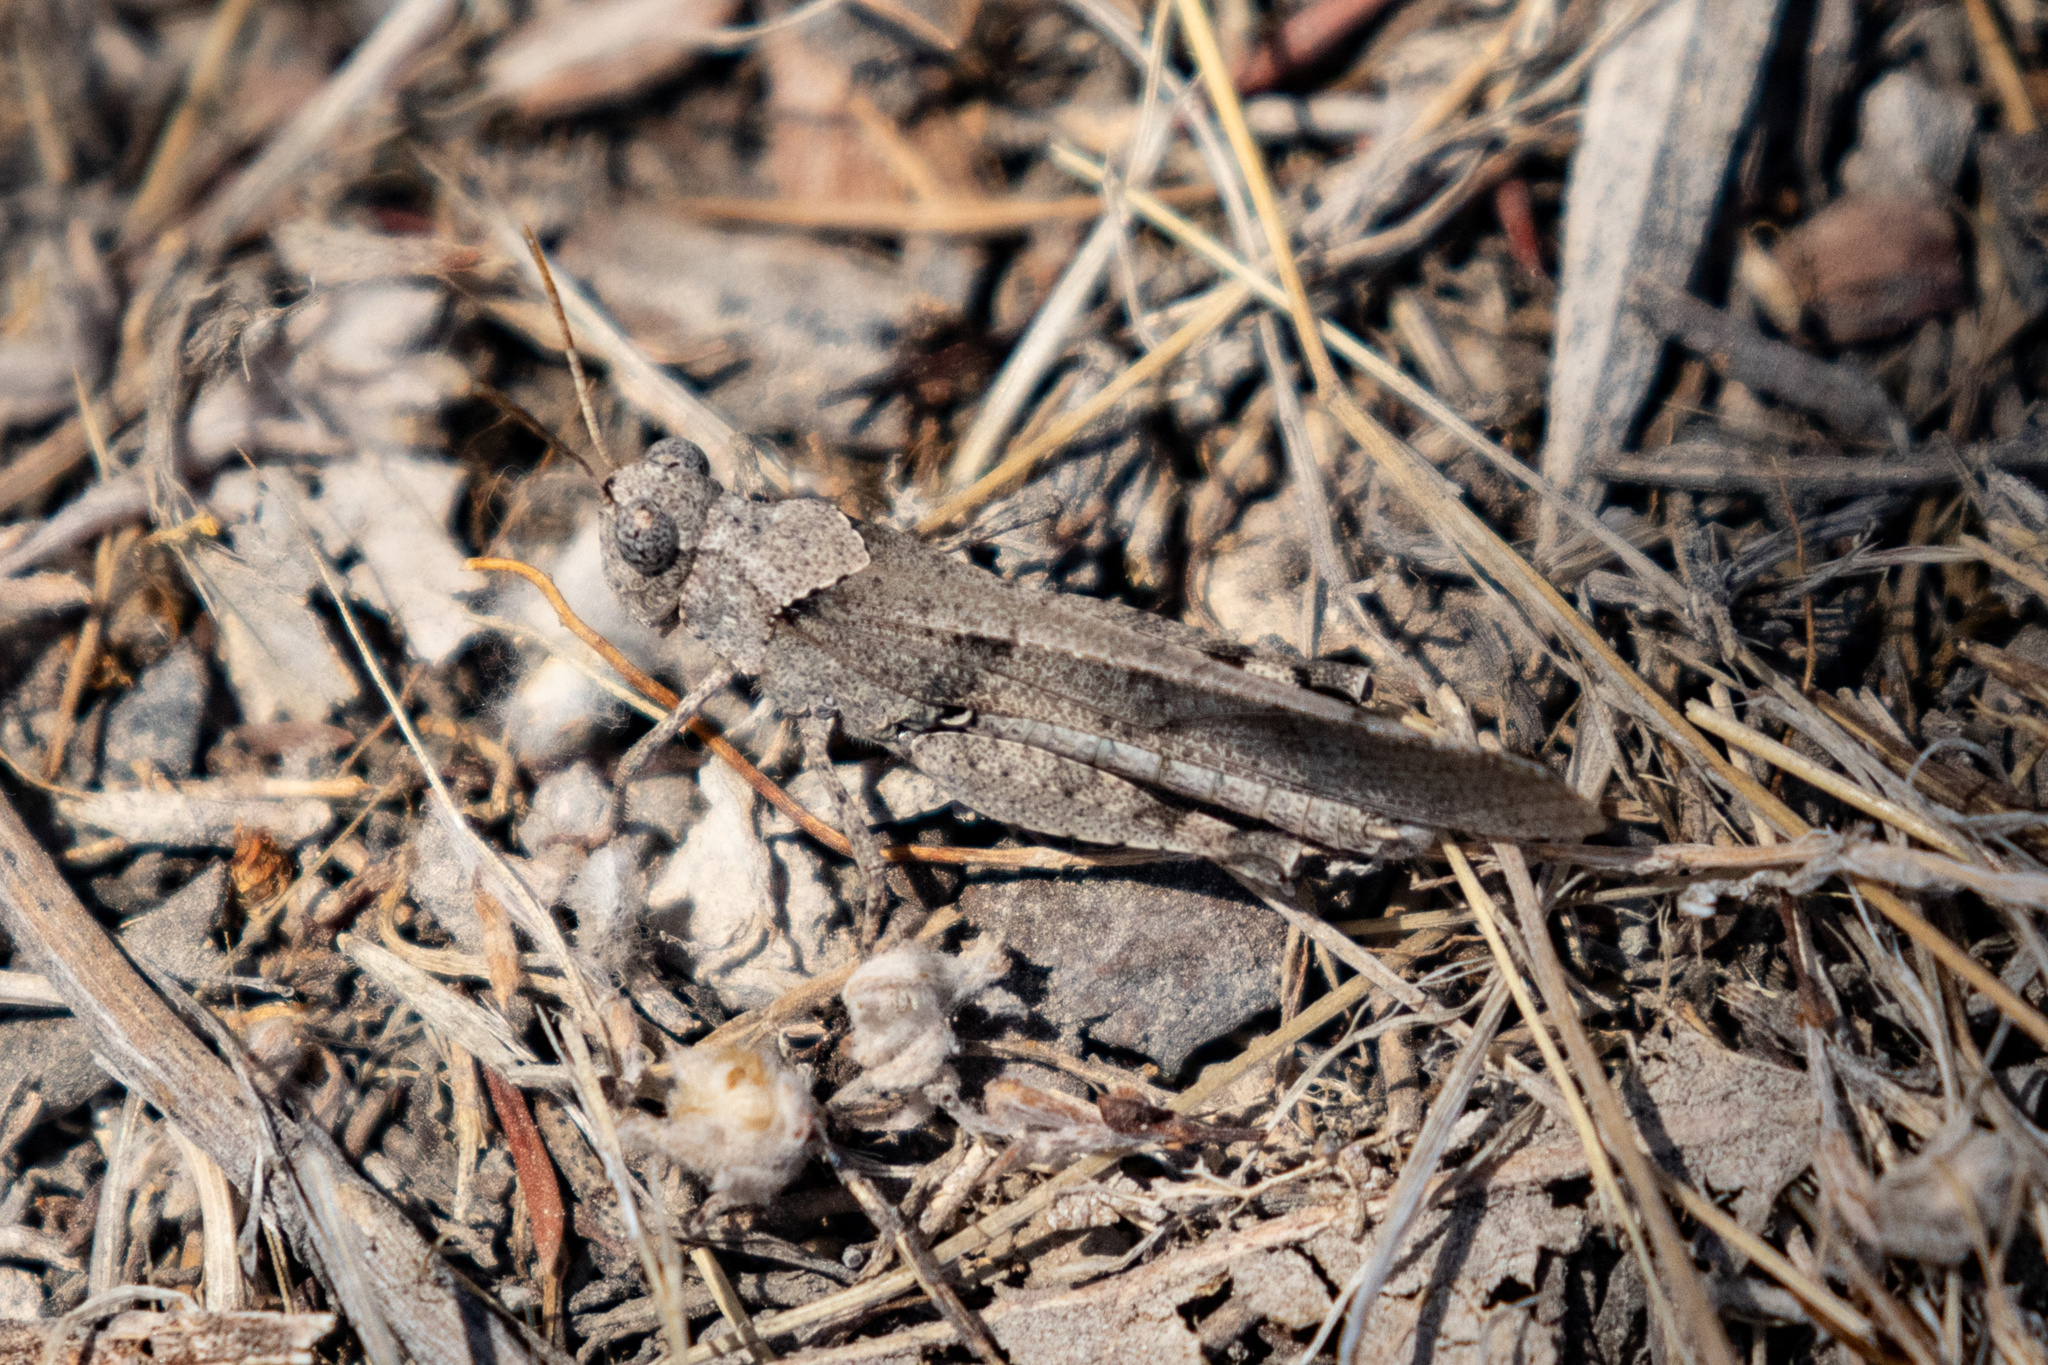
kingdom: Animalia
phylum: Arthropoda
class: Insecta
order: Orthoptera
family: Acrididae
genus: Trimerotropis
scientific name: Trimerotropis thalassica
